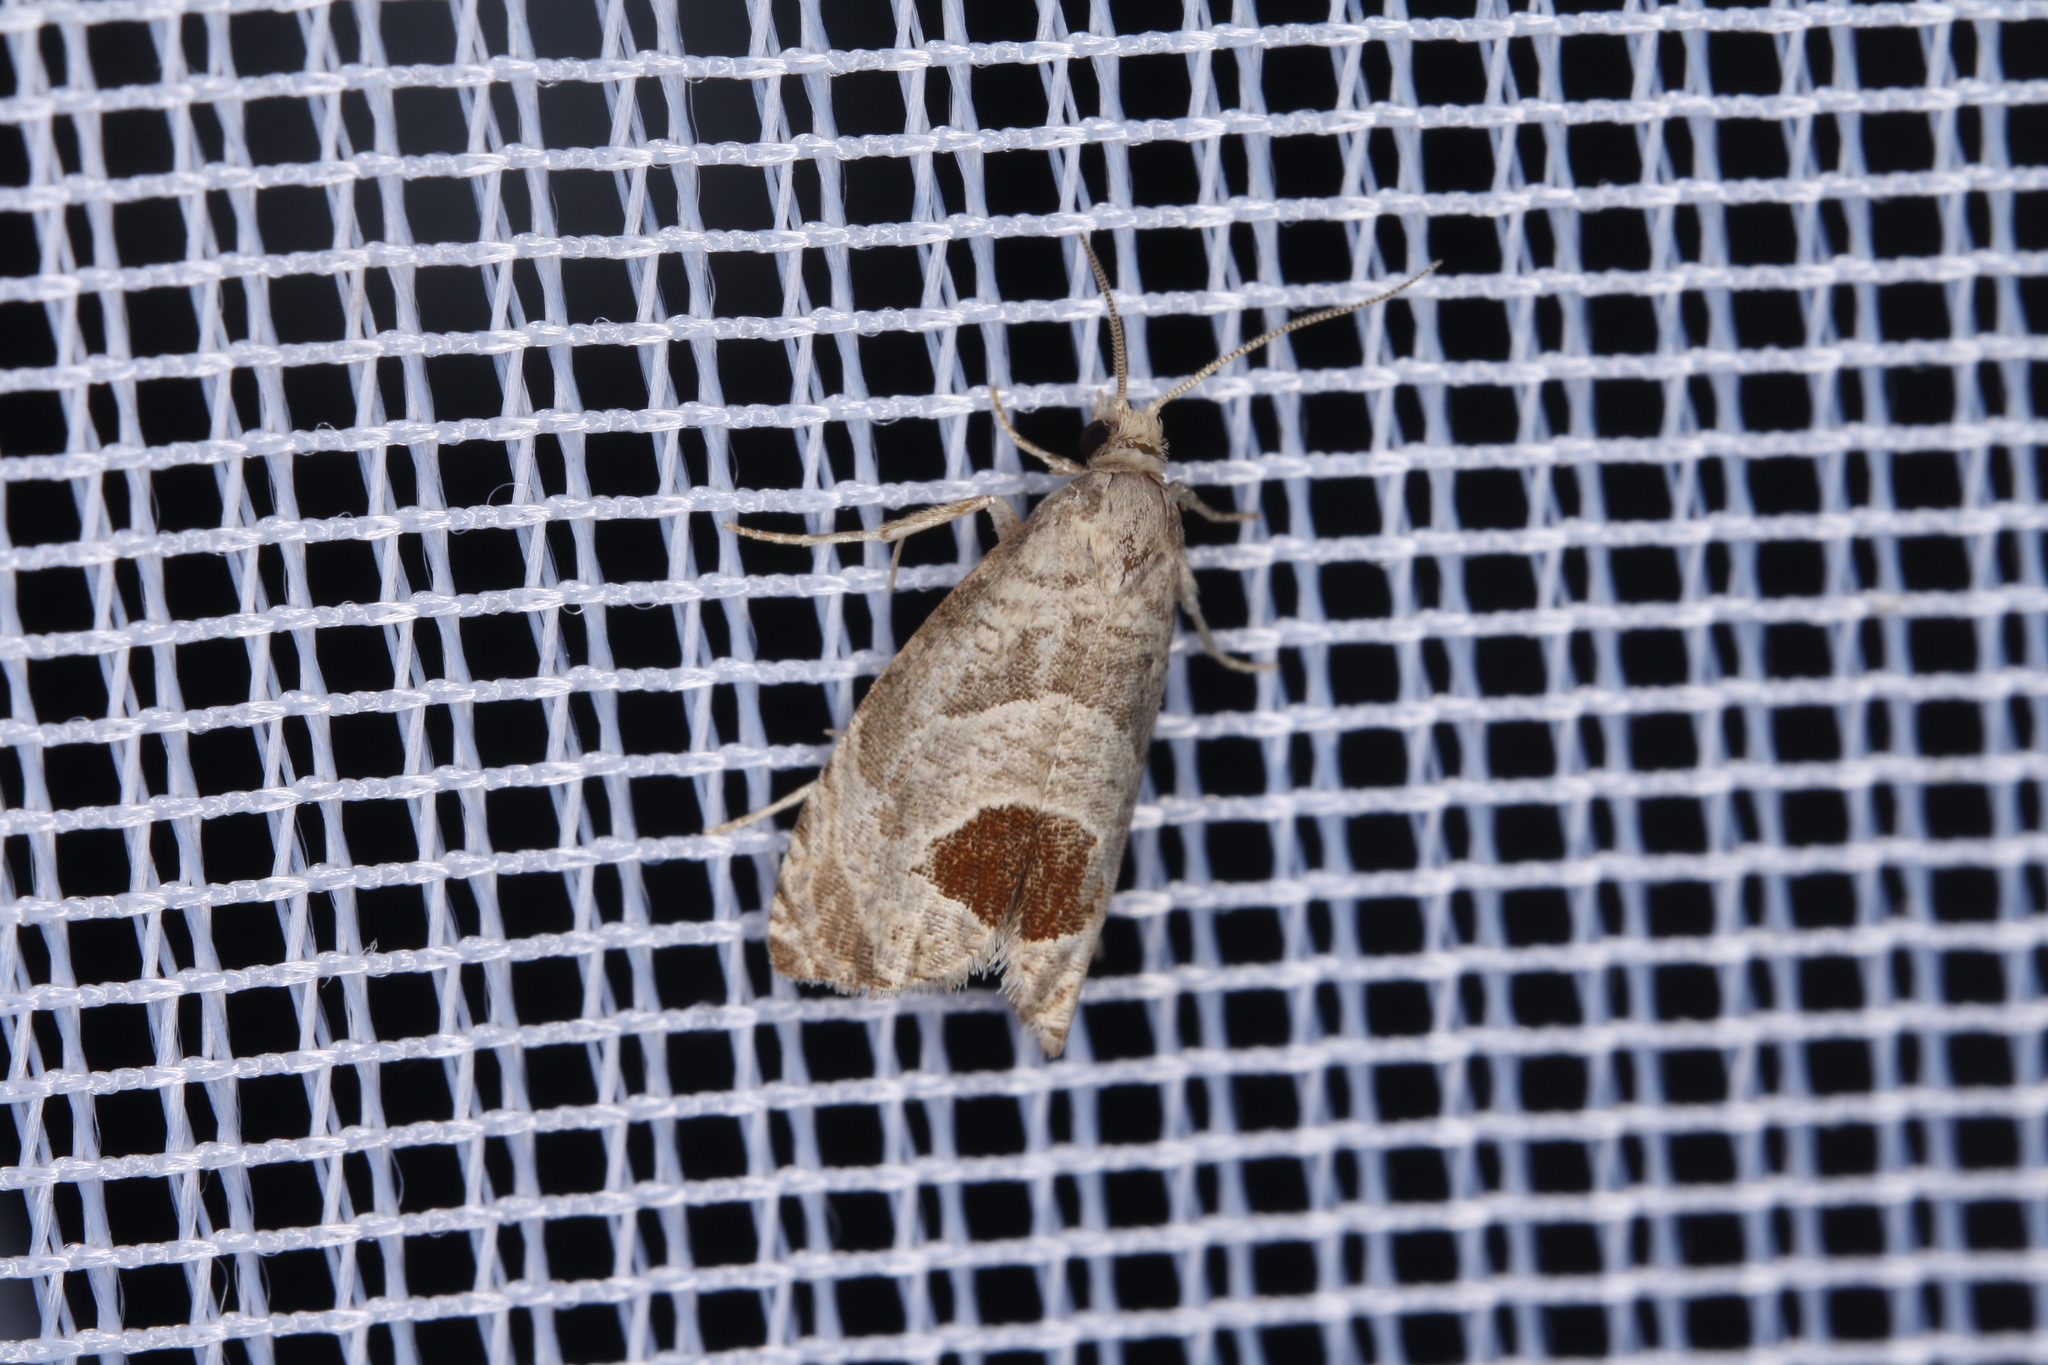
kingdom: Animalia
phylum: Arthropoda
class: Insecta
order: Lepidoptera
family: Tortricidae
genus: Notocelia
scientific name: Notocelia uddmanniana
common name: Bramble shoot moth
